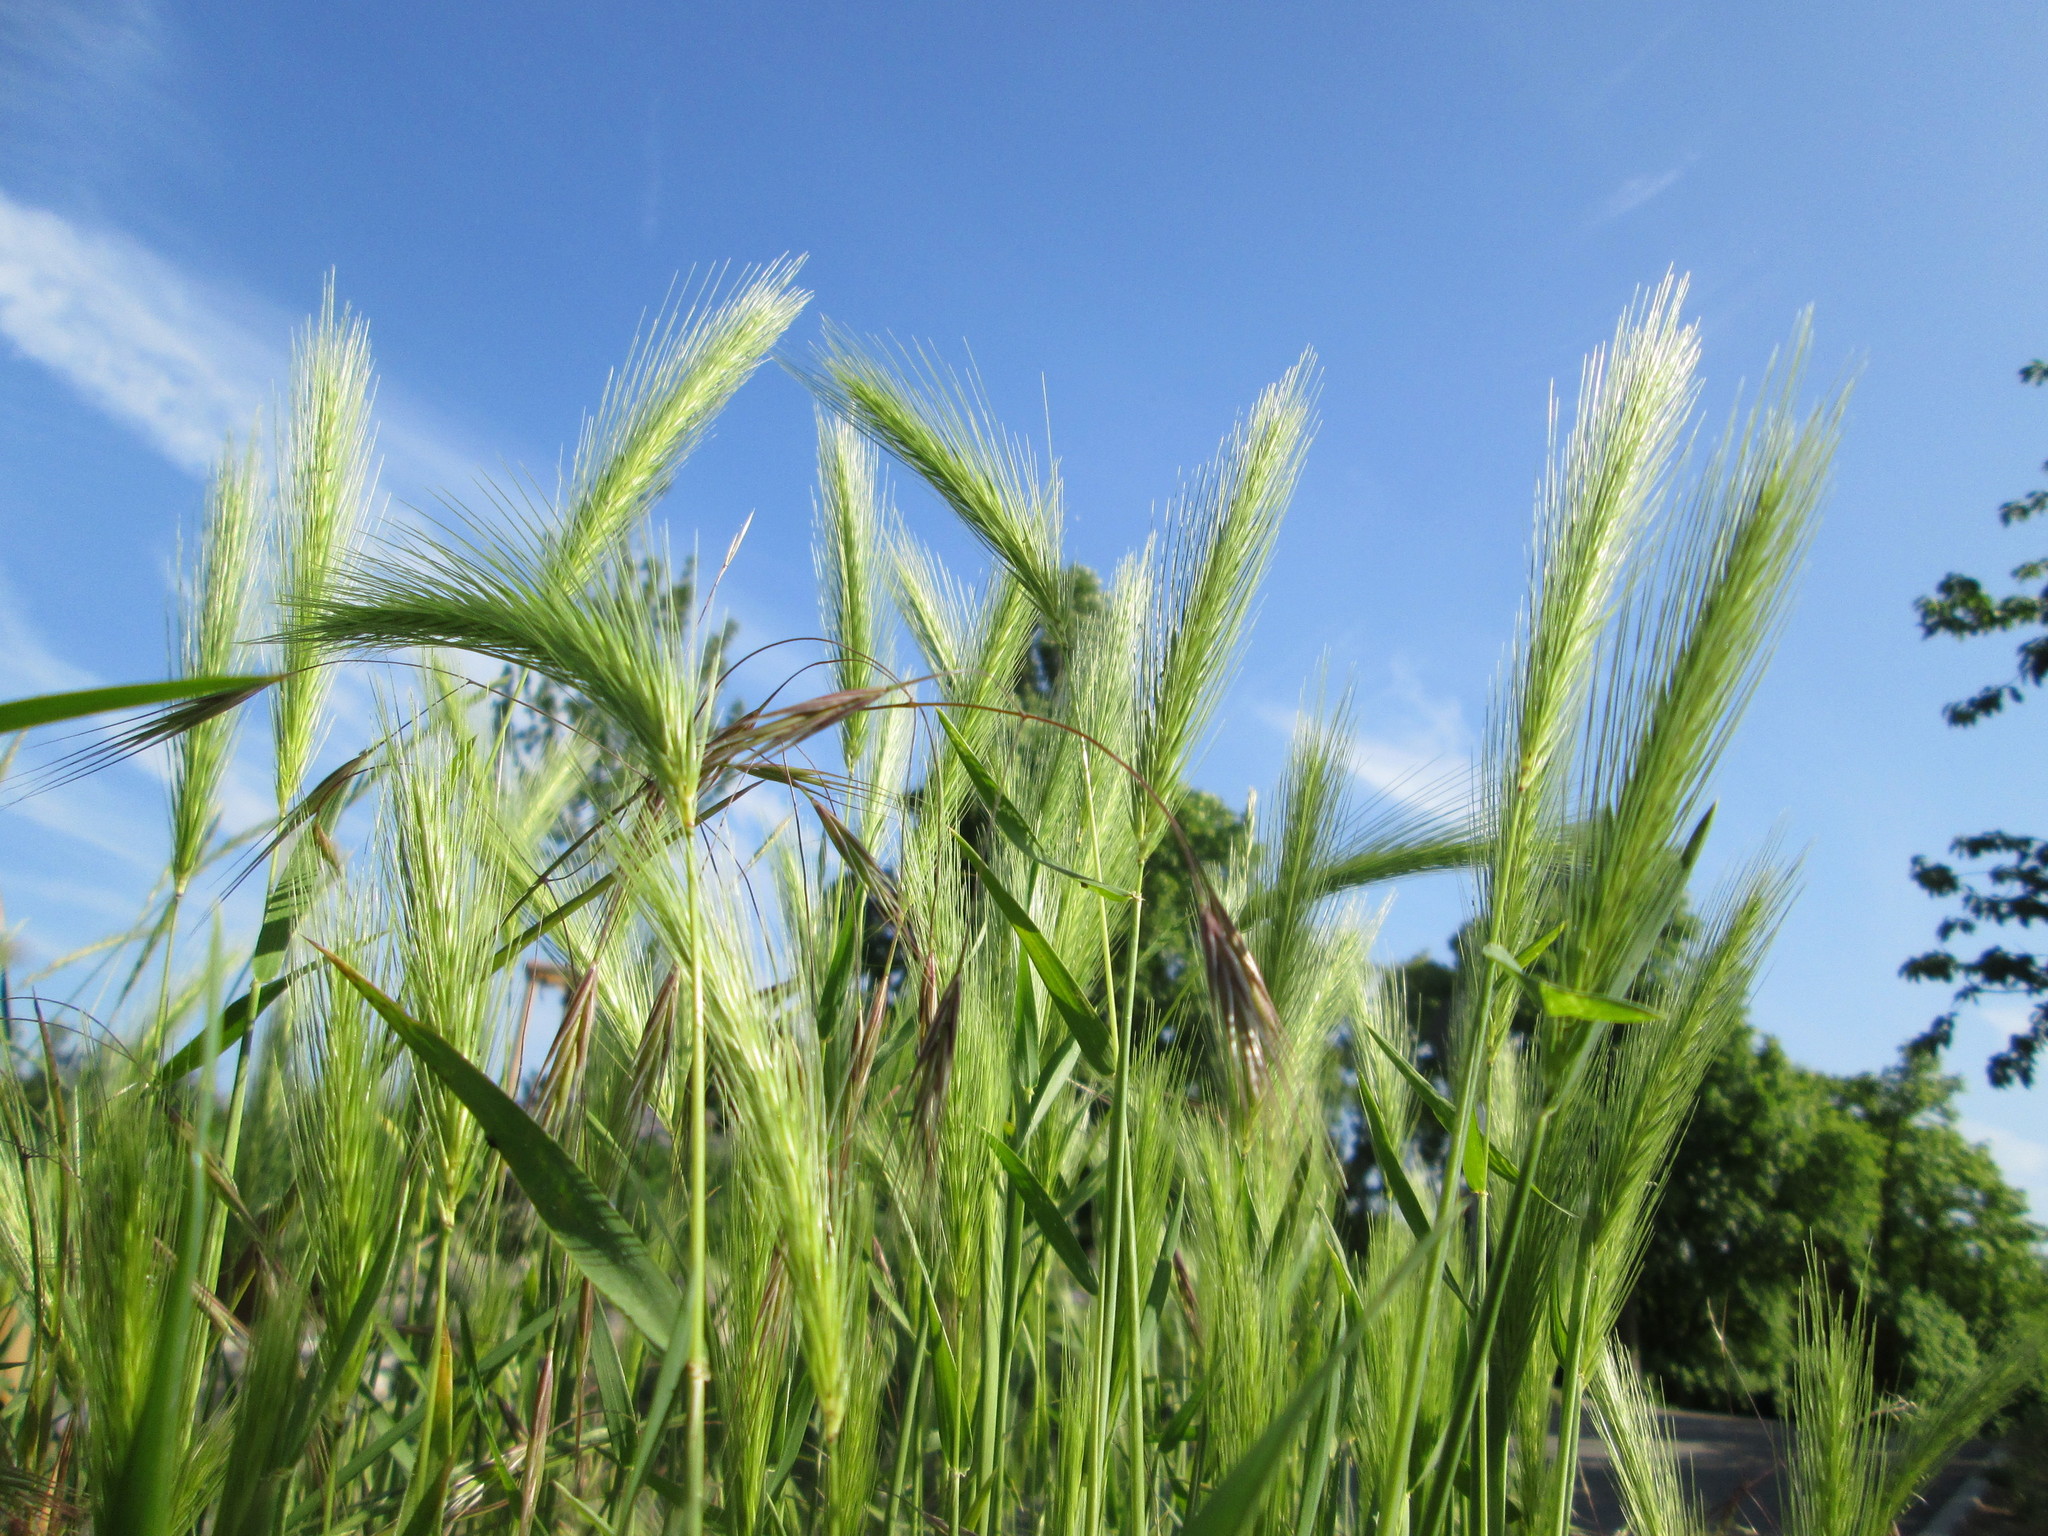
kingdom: Plantae
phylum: Tracheophyta
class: Liliopsida
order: Poales
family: Poaceae
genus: Hordeum
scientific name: Hordeum murinum
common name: Wall barley
